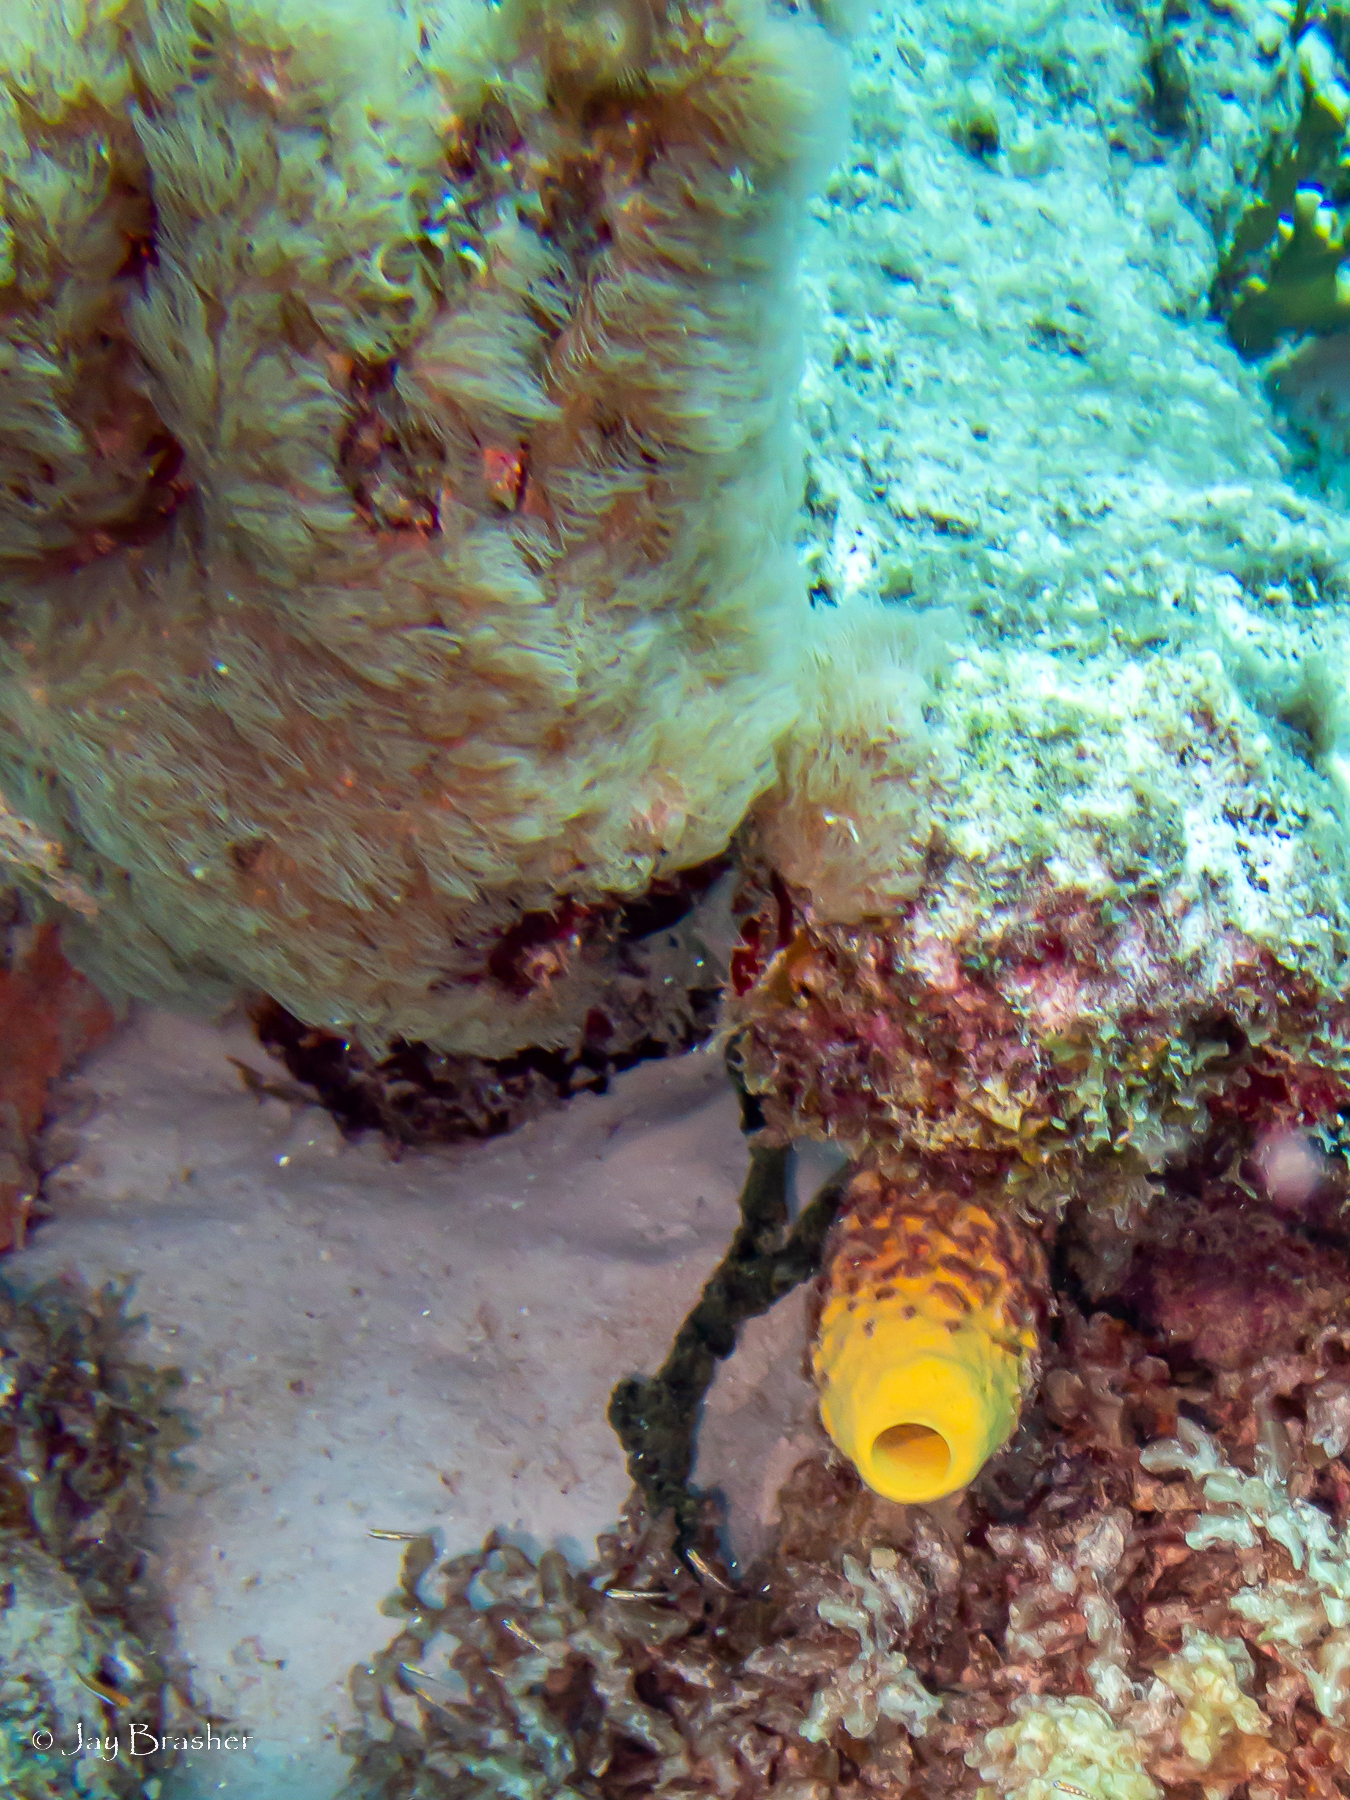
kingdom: Animalia
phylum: Porifera
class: Demospongiae
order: Verongiida
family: Aplysinidae
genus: Aplysina
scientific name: Aplysina archeri
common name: Stove-pipe sponge
